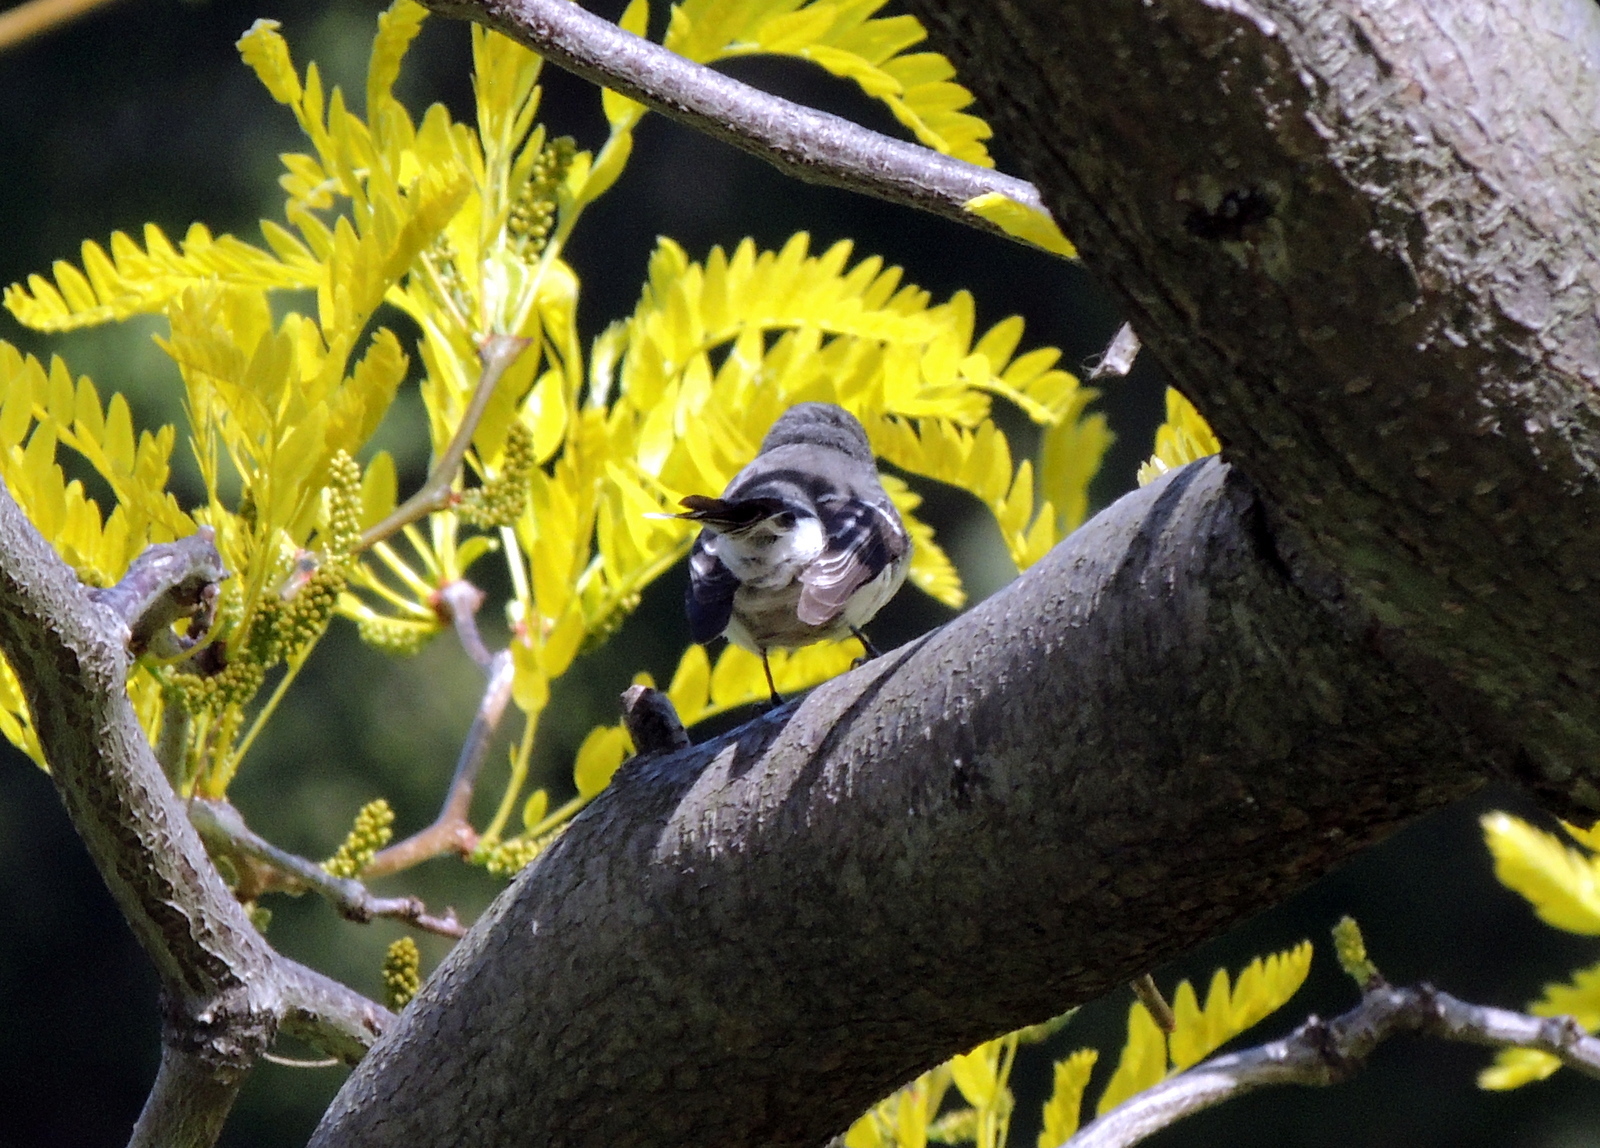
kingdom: Animalia
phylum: Chordata
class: Aves
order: Passeriformes
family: Rhipiduridae
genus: Rhipidura
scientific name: Rhipidura albiscapa
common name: Grey fantail
